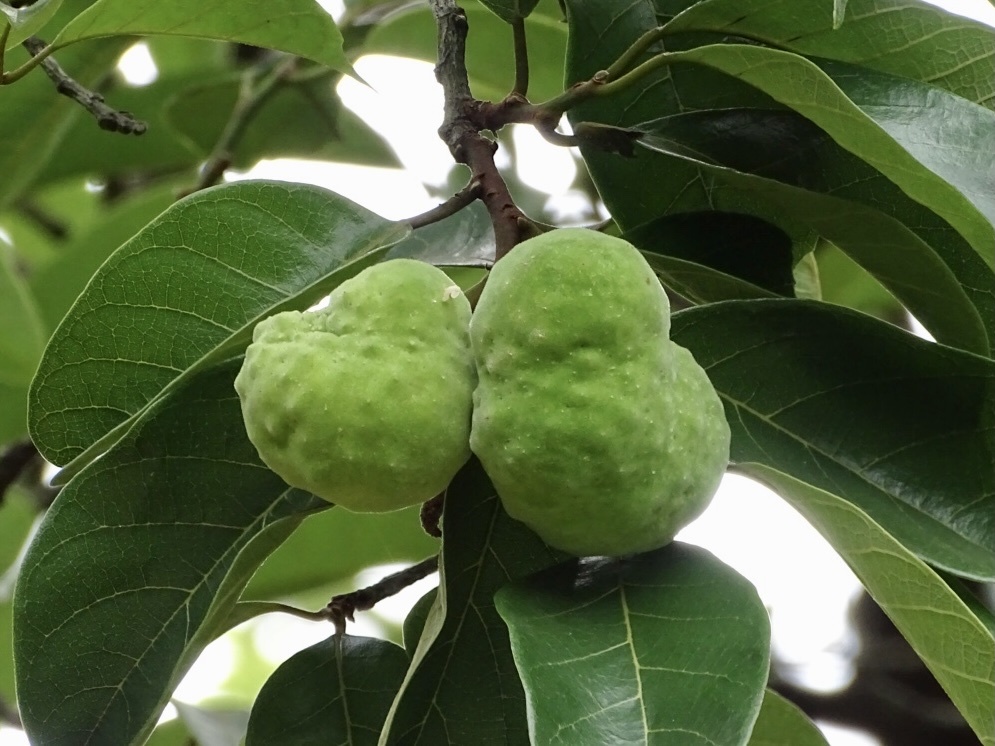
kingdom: Plantae
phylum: Tracheophyta
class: Magnoliopsida
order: Rosales
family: Moraceae
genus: Artocarpus
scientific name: Artocarpus hypargyreus
